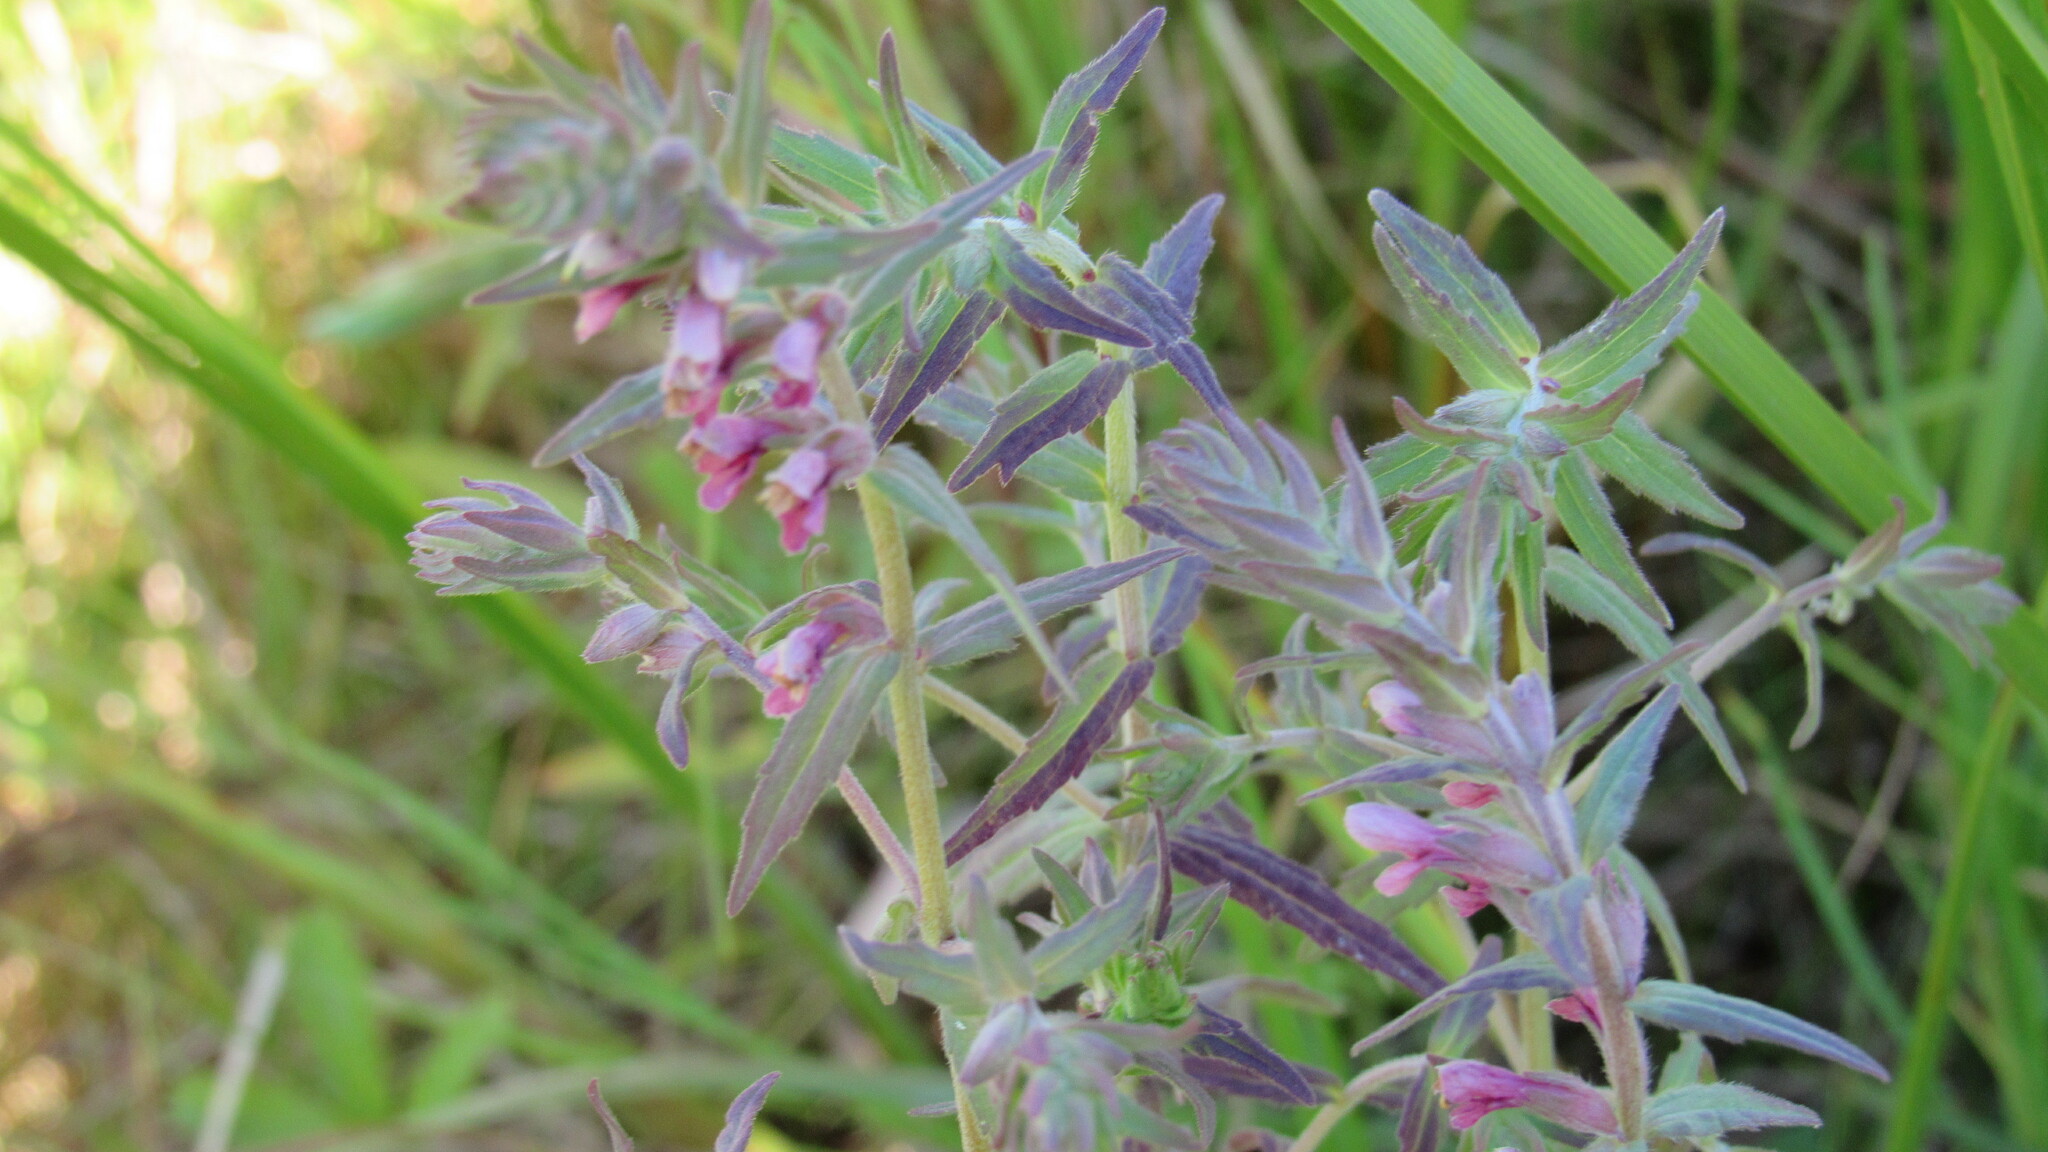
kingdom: Plantae
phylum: Tracheophyta
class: Magnoliopsida
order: Lamiales
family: Orobanchaceae
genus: Odontites
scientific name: Odontites vulgaris
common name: Broomrape
